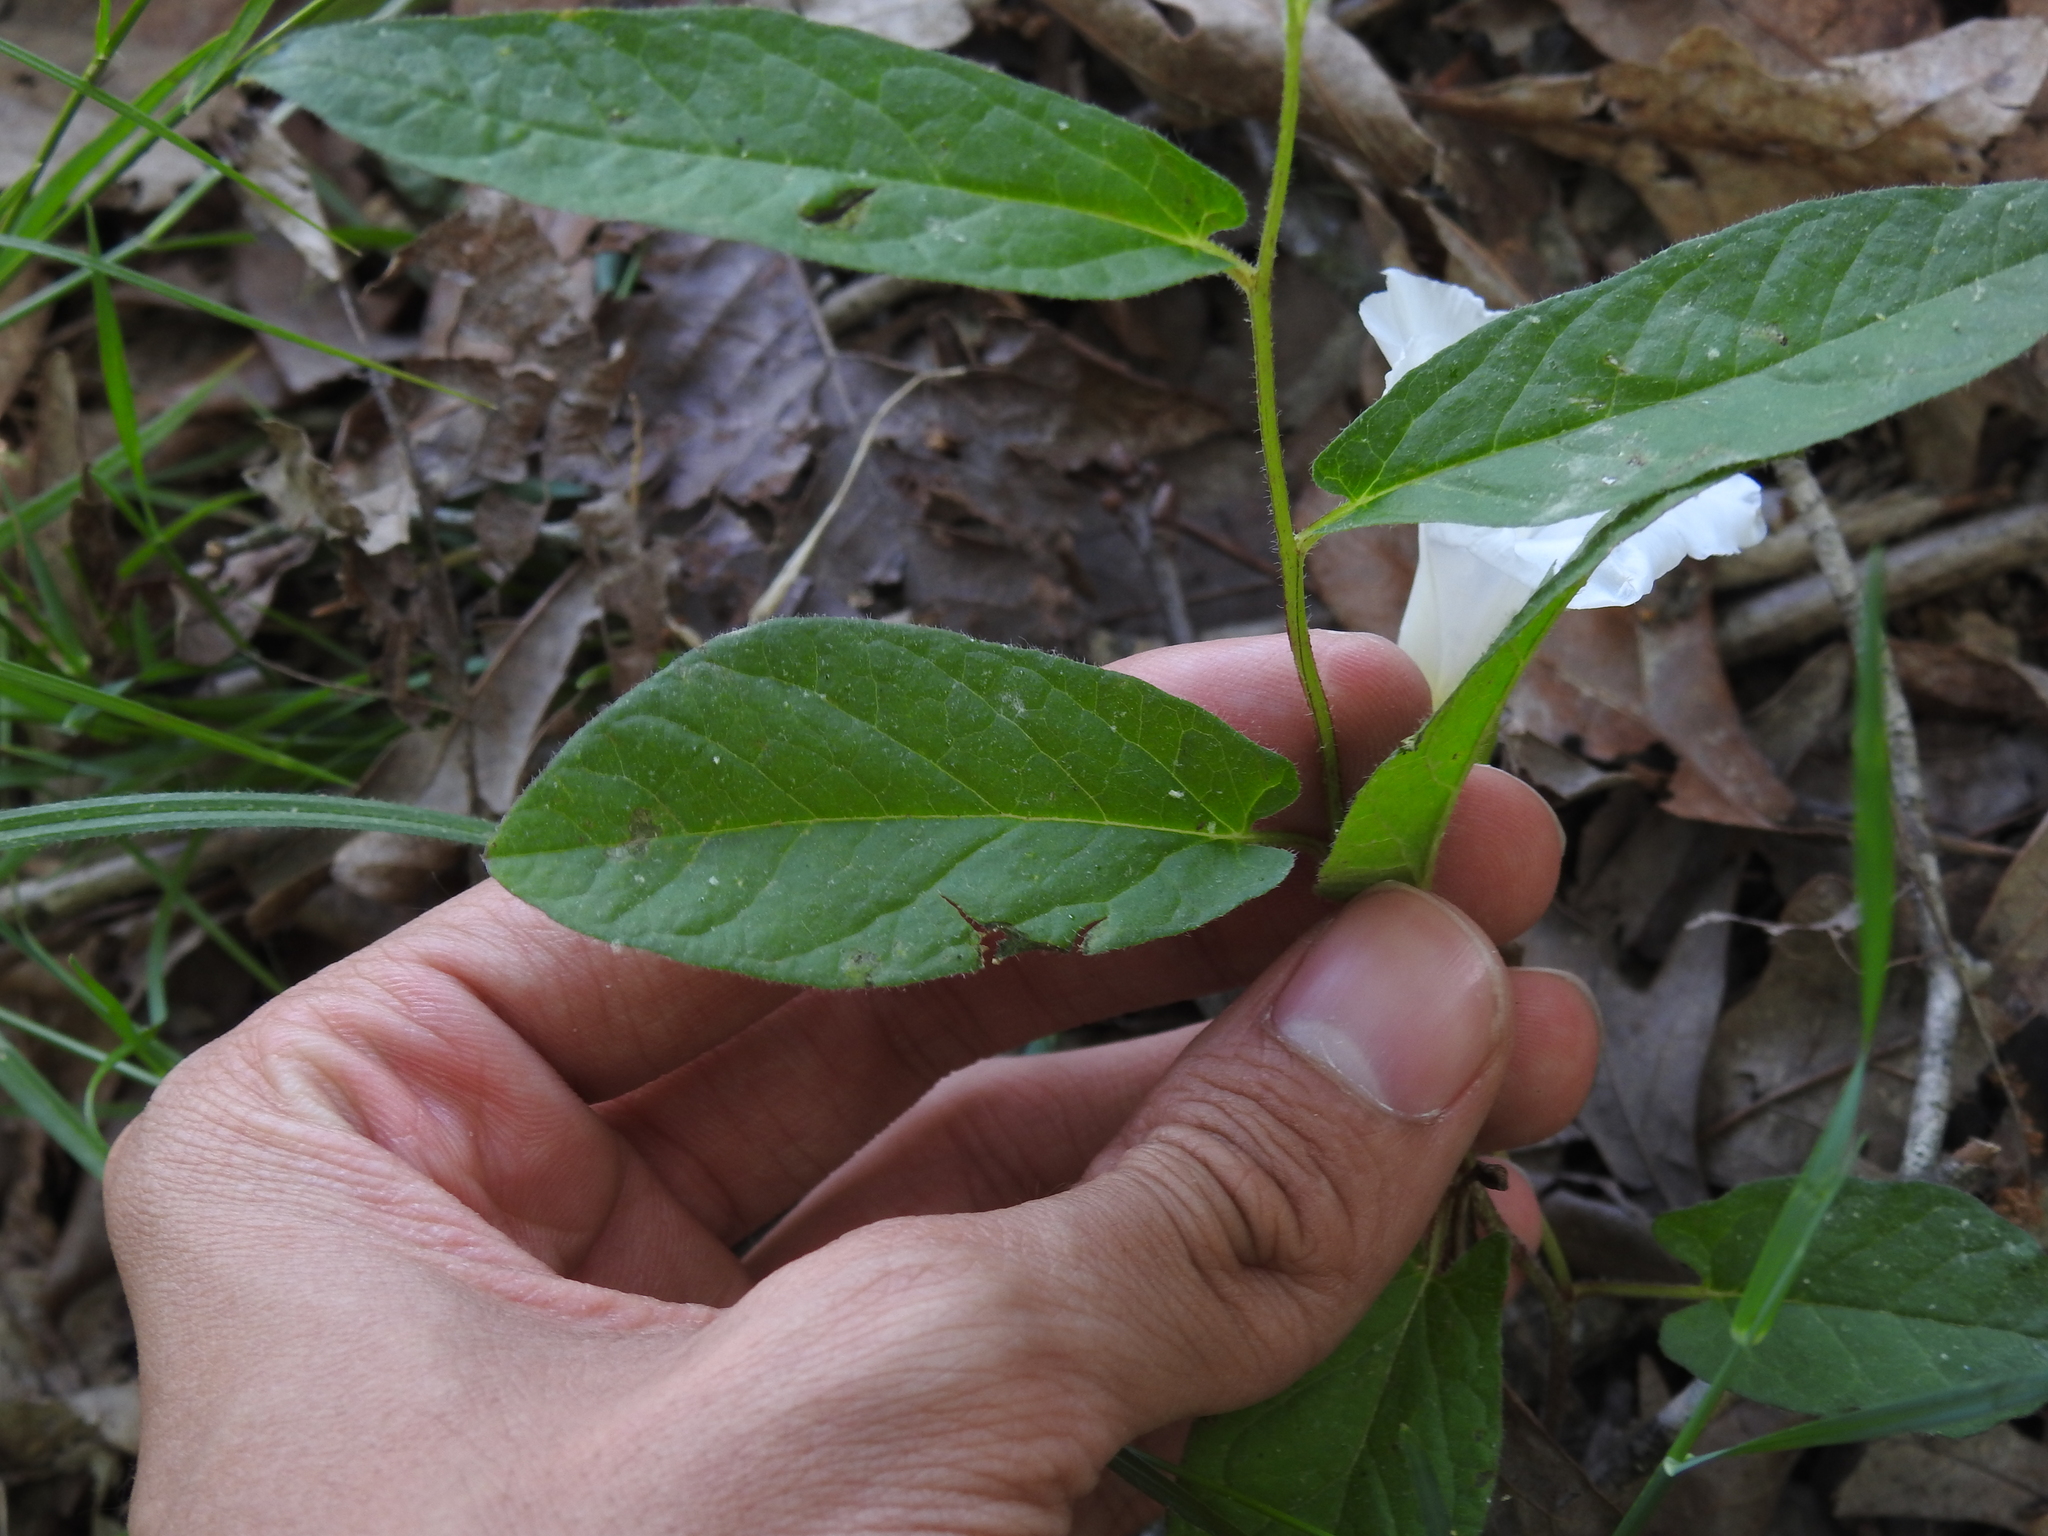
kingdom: Plantae
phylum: Tracheophyta
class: Magnoliopsida
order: Solanales
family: Convolvulaceae
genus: Calystegia
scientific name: Calystegia spithamaea
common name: Dwarf bindweed
